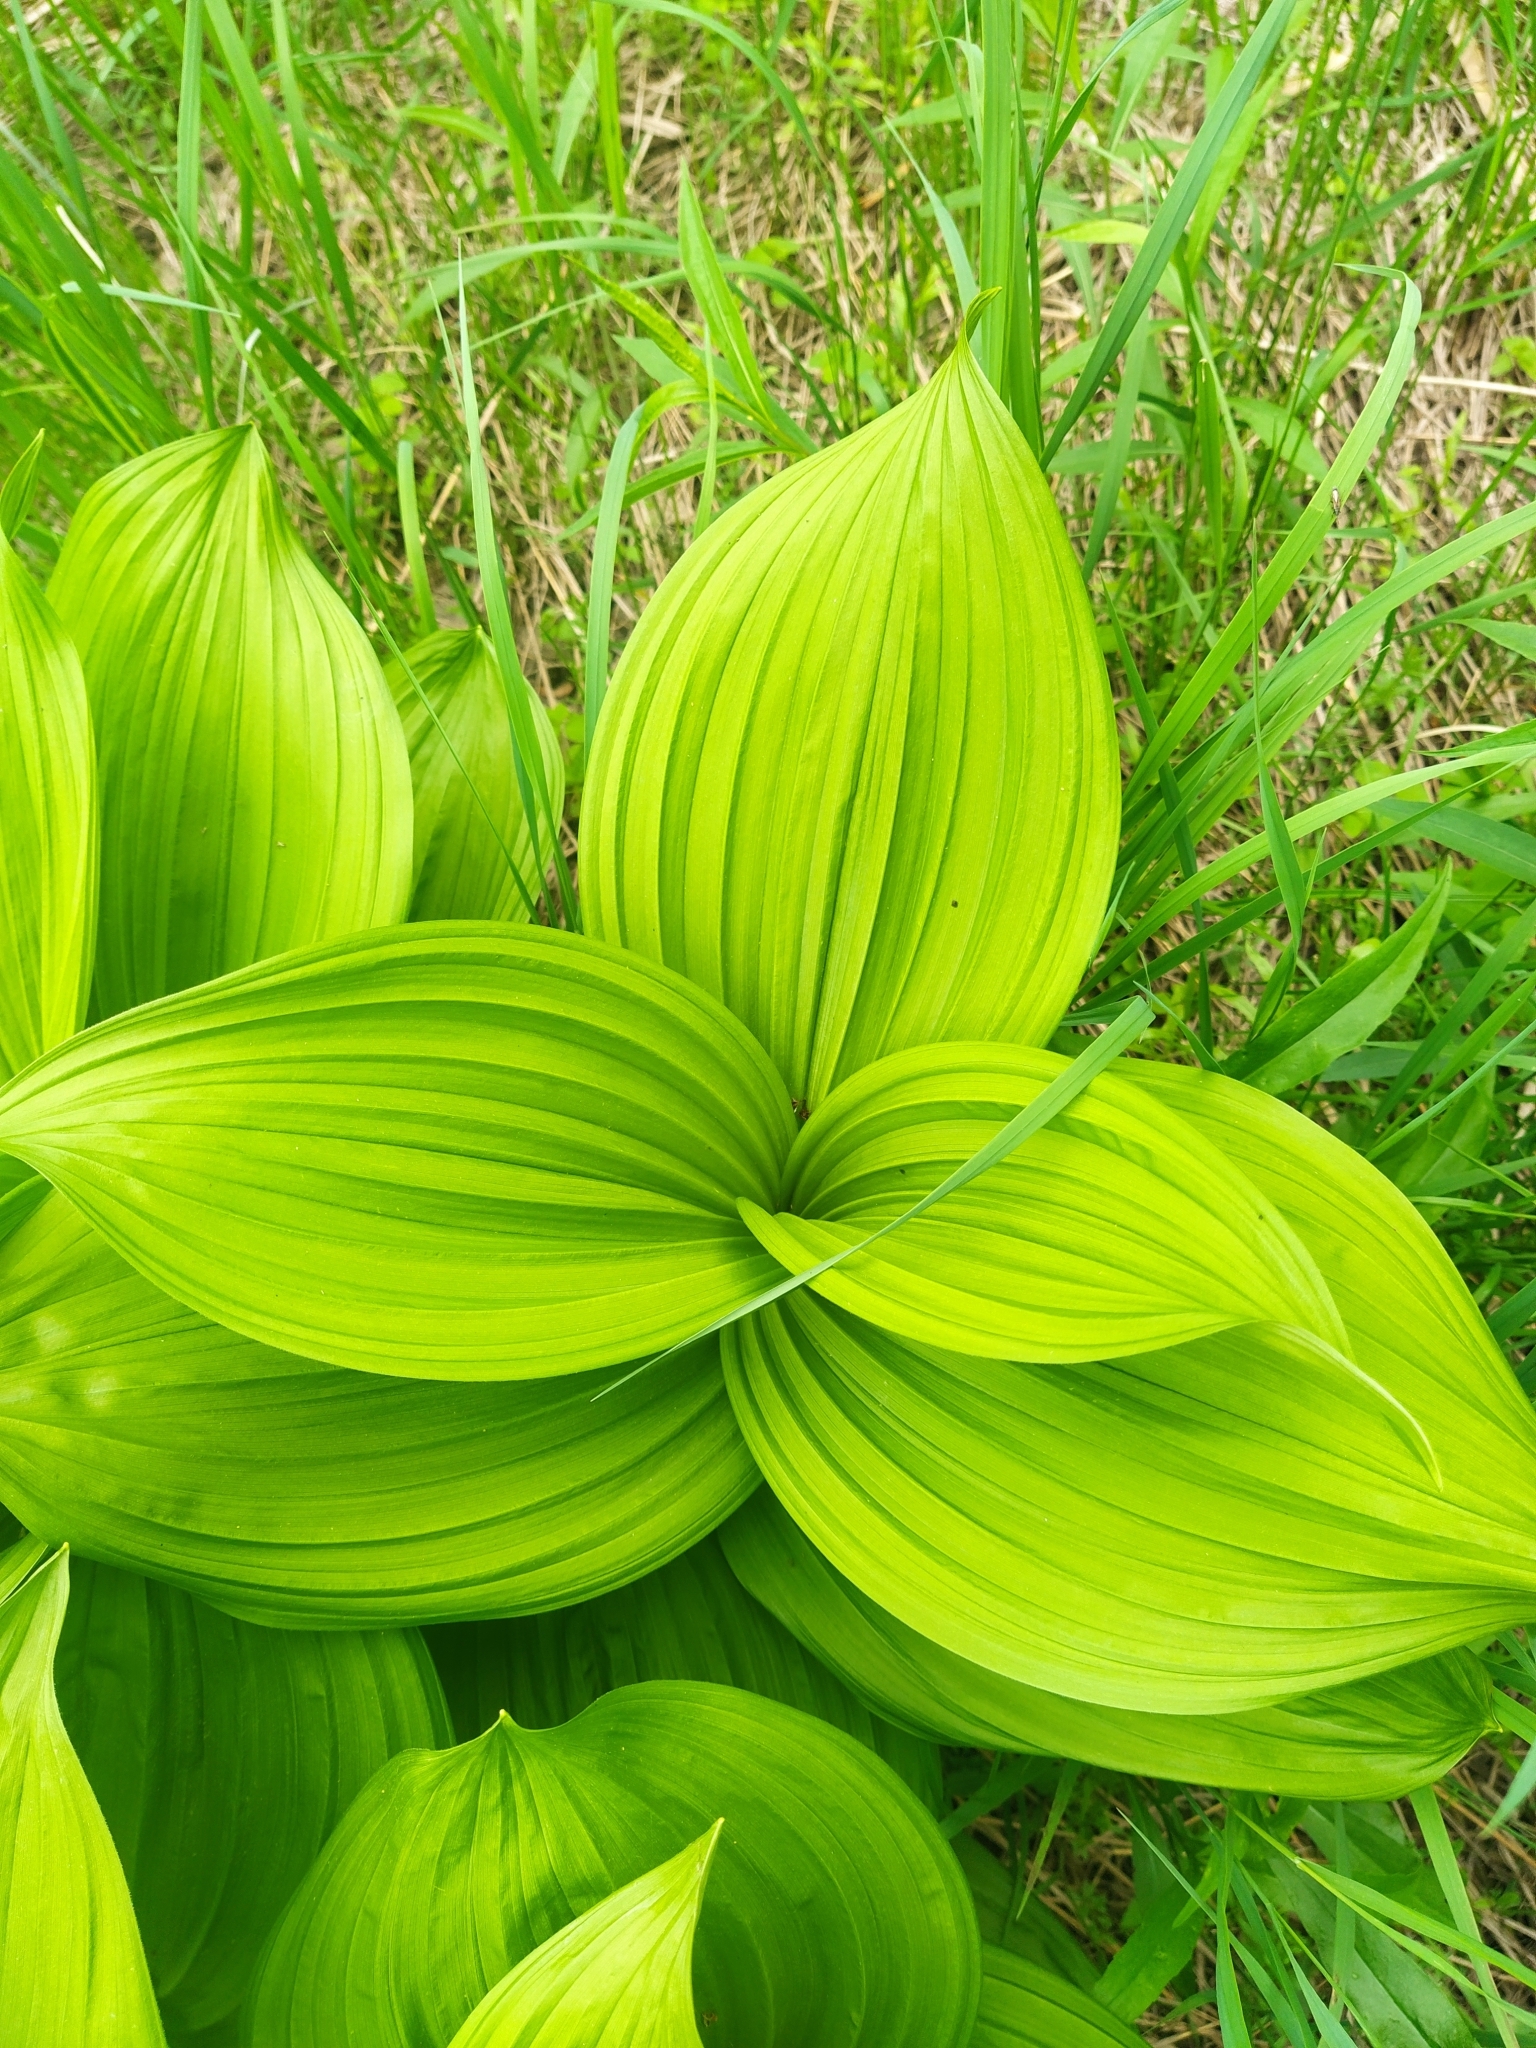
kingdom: Plantae
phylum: Tracheophyta
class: Liliopsida
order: Liliales
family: Melanthiaceae
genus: Veratrum
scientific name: Veratrum viride
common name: American false hellebore
